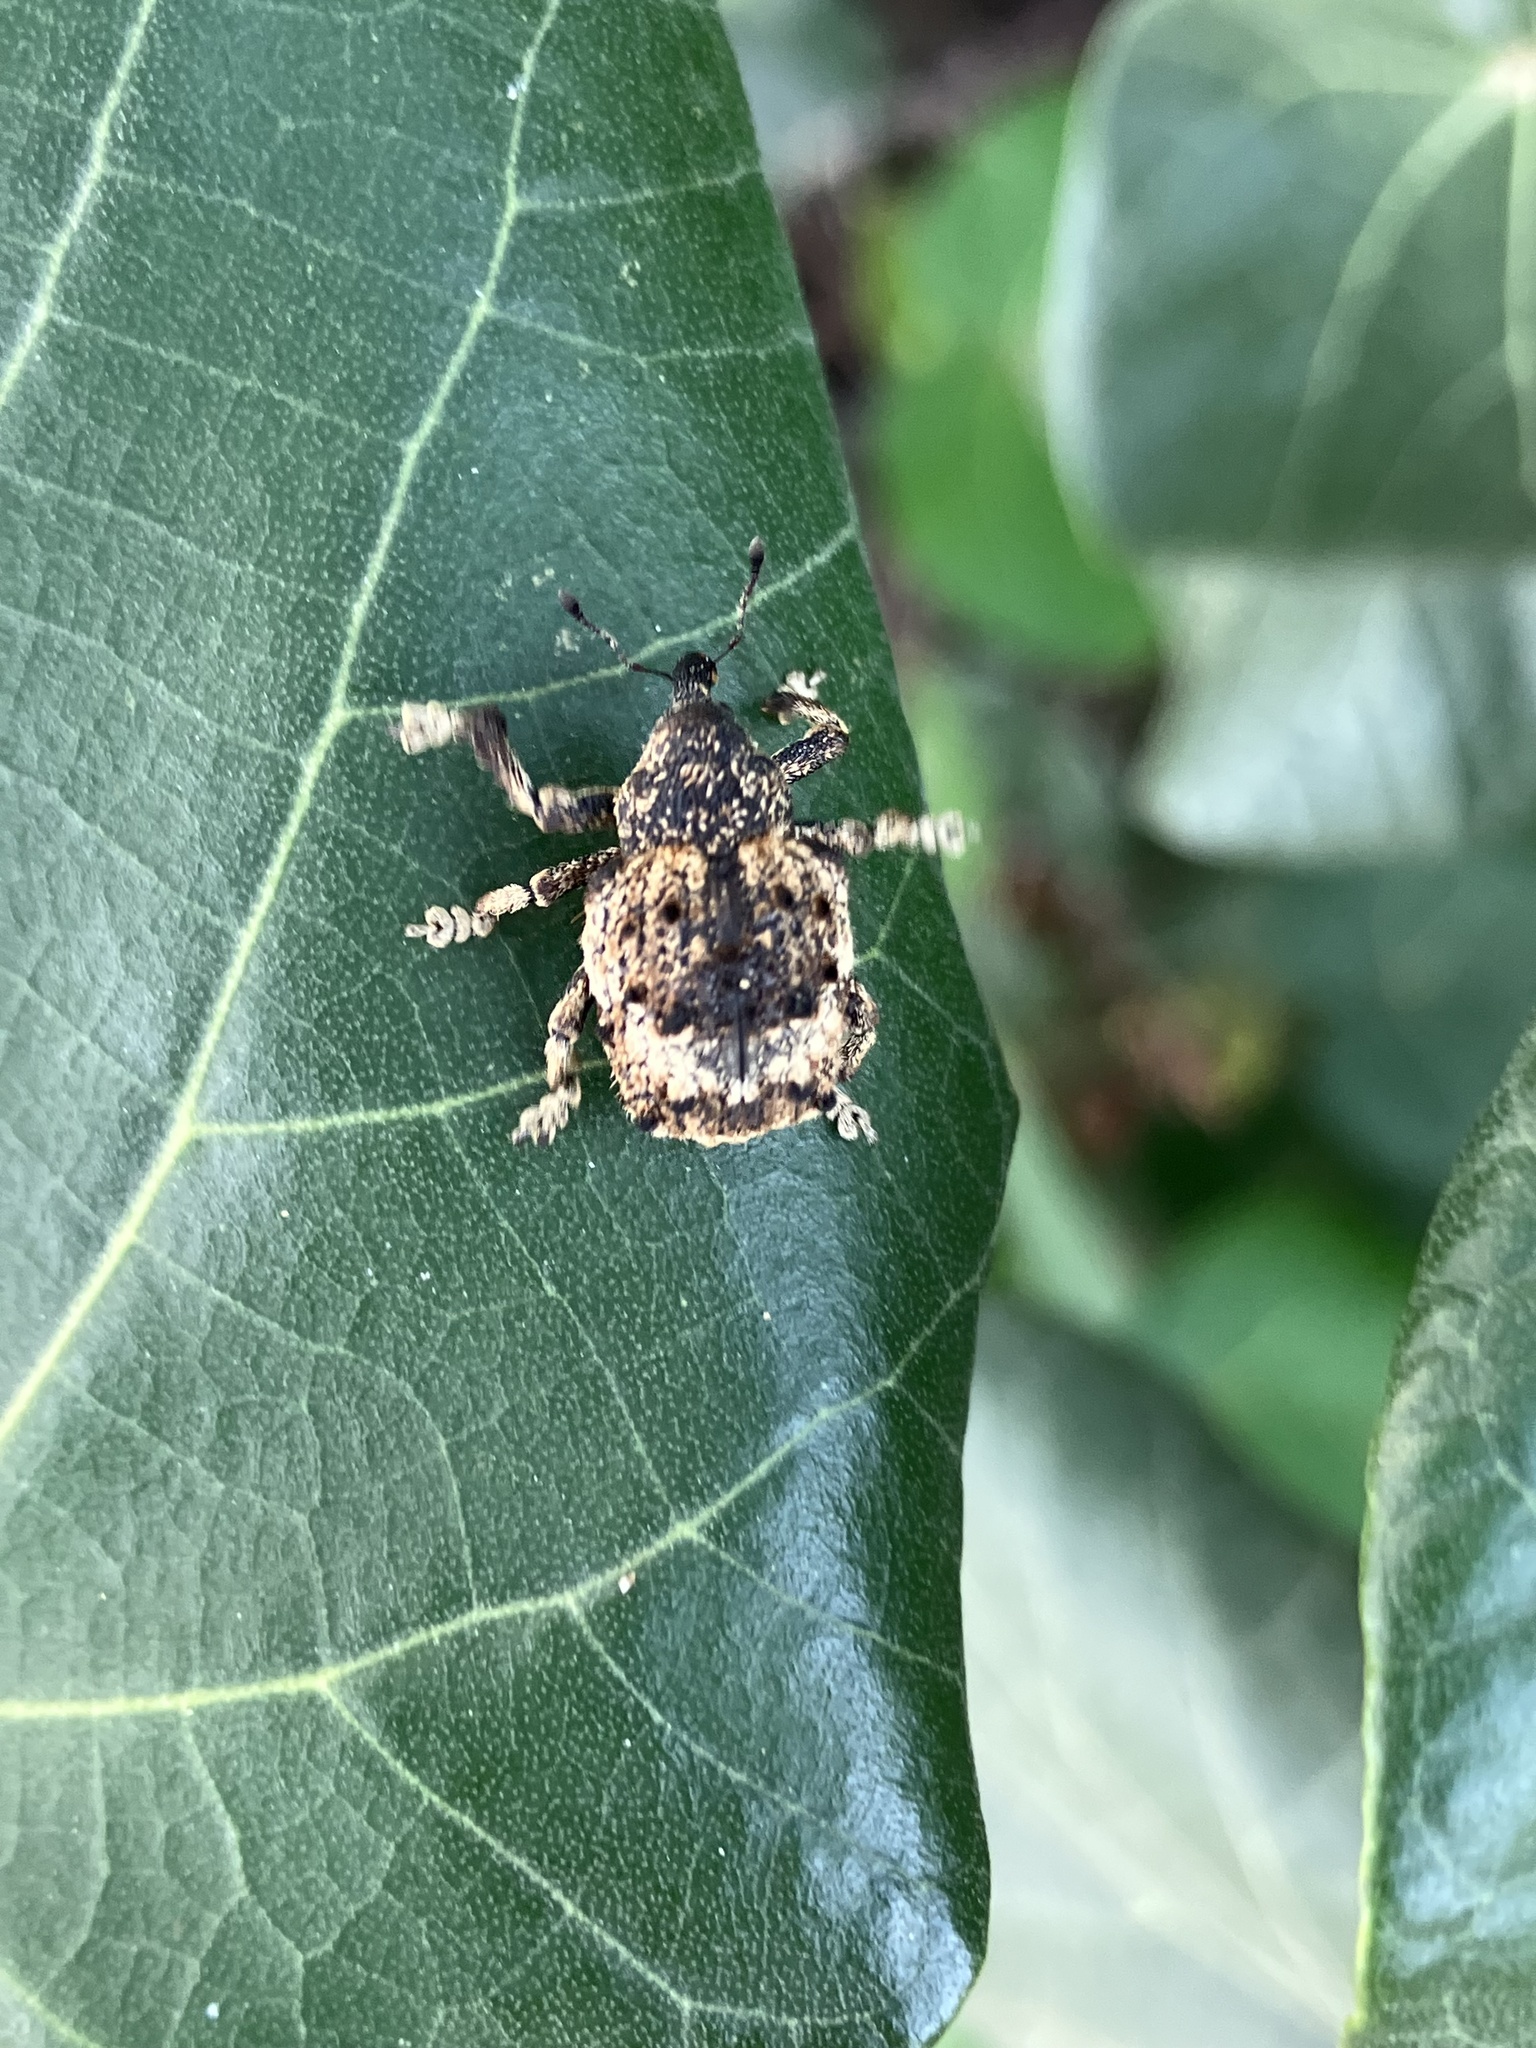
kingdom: Animalia
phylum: Arthropoda
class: Insecta
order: Coleoptera
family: Brachyceridae
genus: Desmidophorus
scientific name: Desmidophorus crassus
